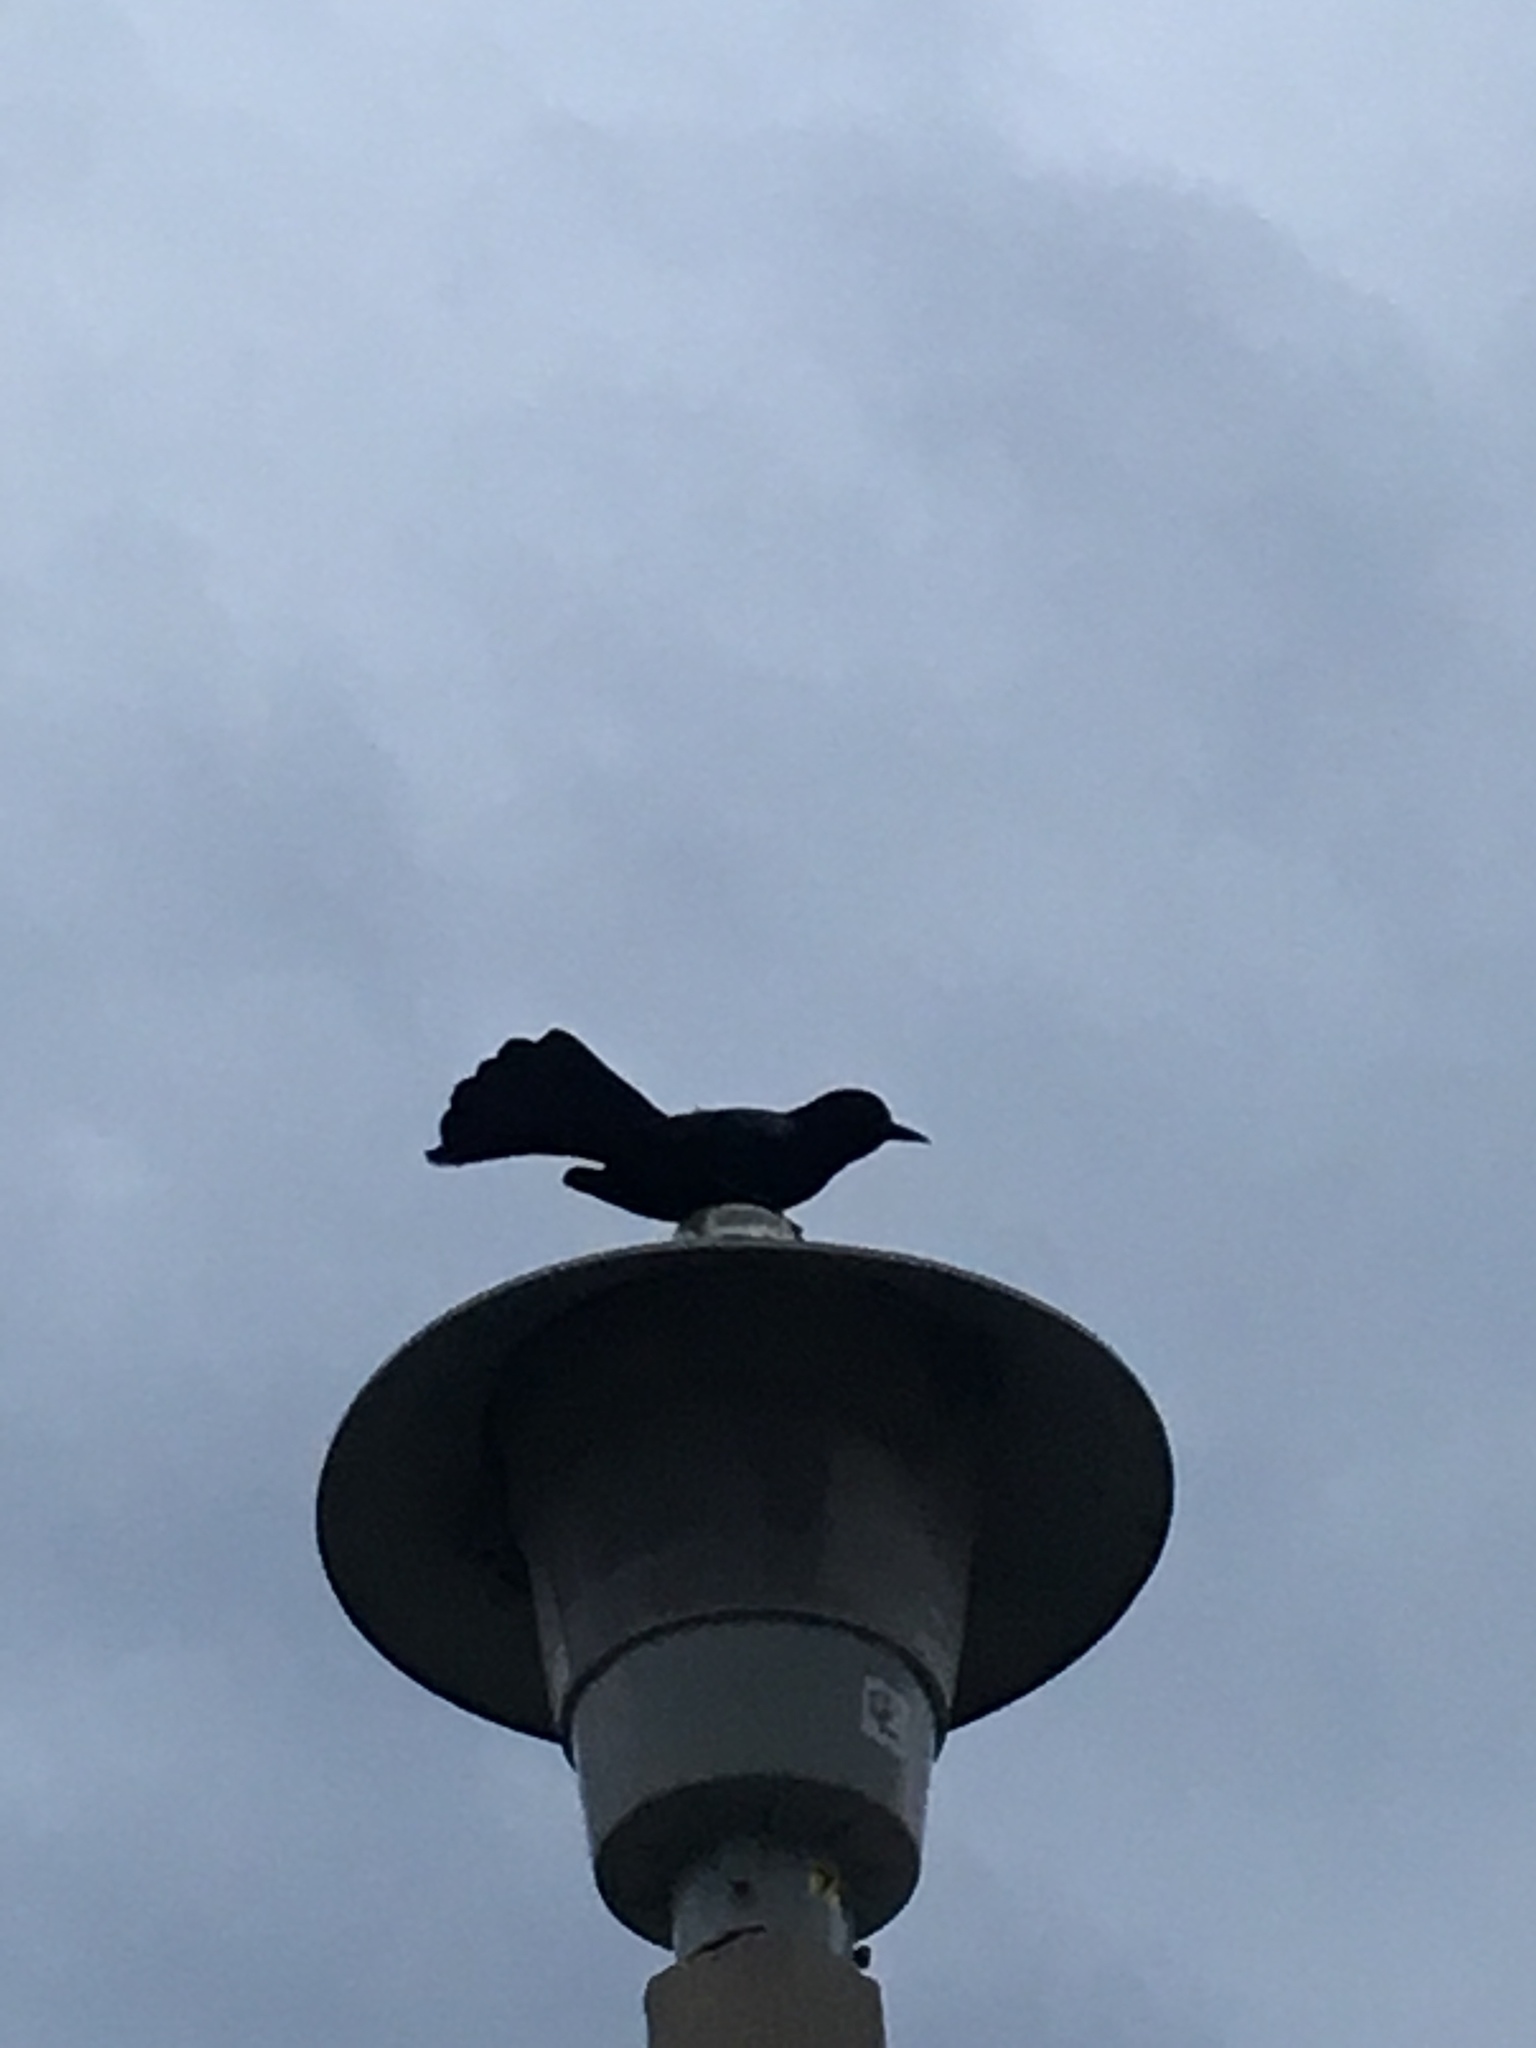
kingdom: Animalia
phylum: Chordata
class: Aves
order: Passeriformes
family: Icteridae
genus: Quiscalus
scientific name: Quiscalus major
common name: Boat-tailed grackle
